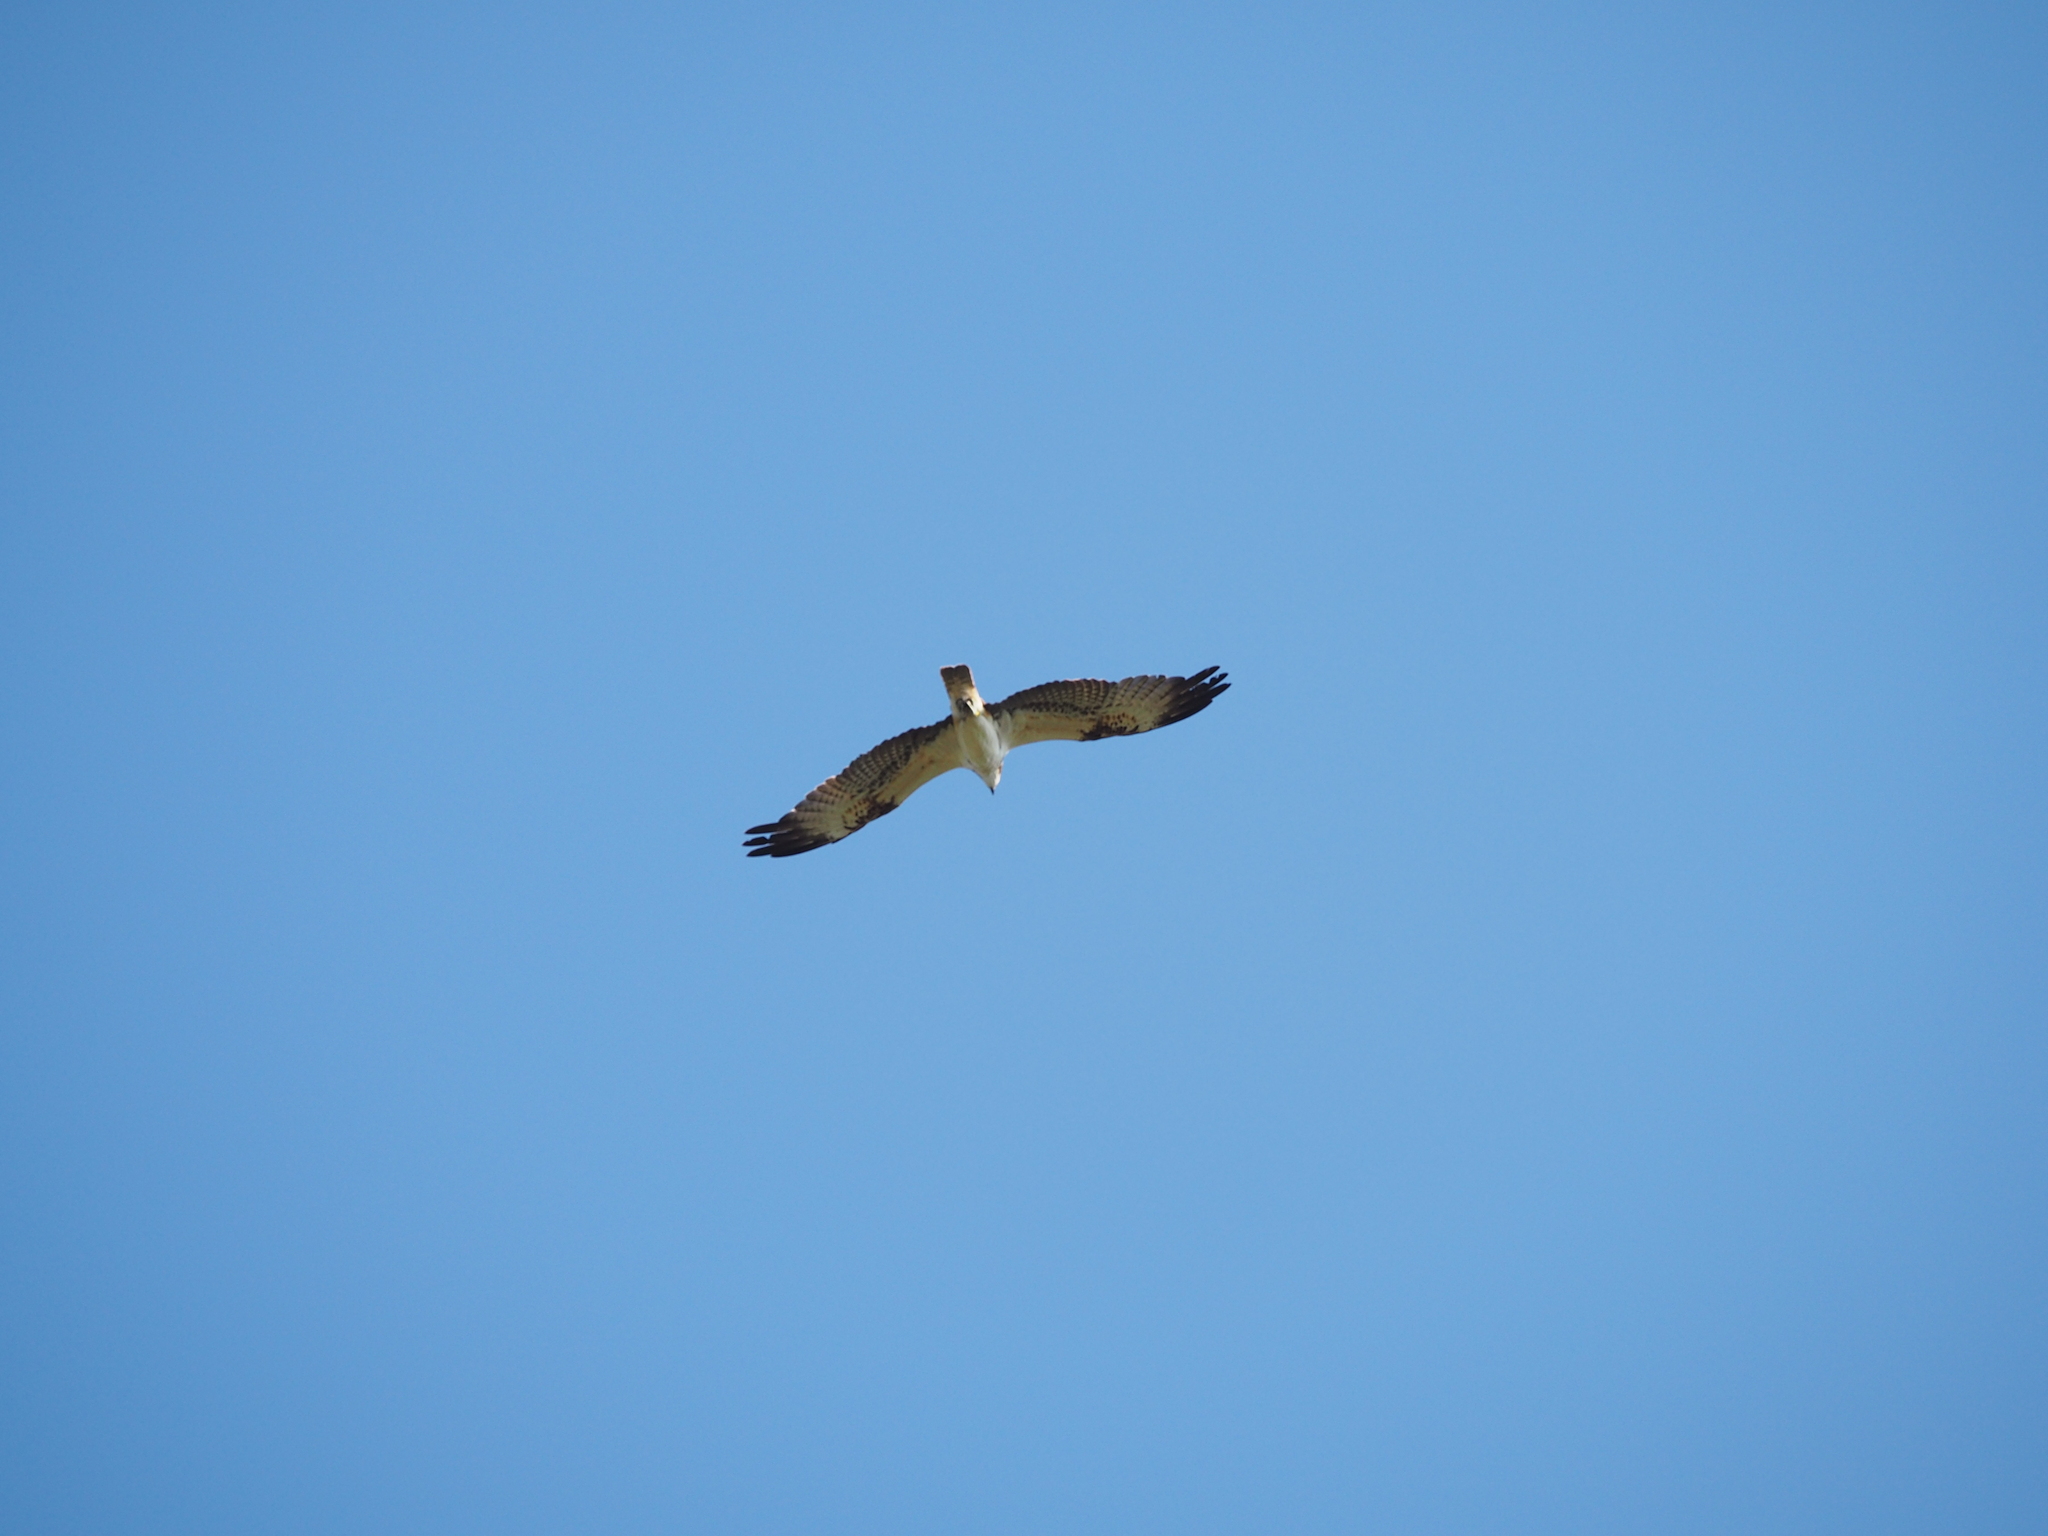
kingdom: Animalia
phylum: Chordata
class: Aves
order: Accipitriformes
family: Pandionidae
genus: Pandion
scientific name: Pandion haliaetus
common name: Osprey
